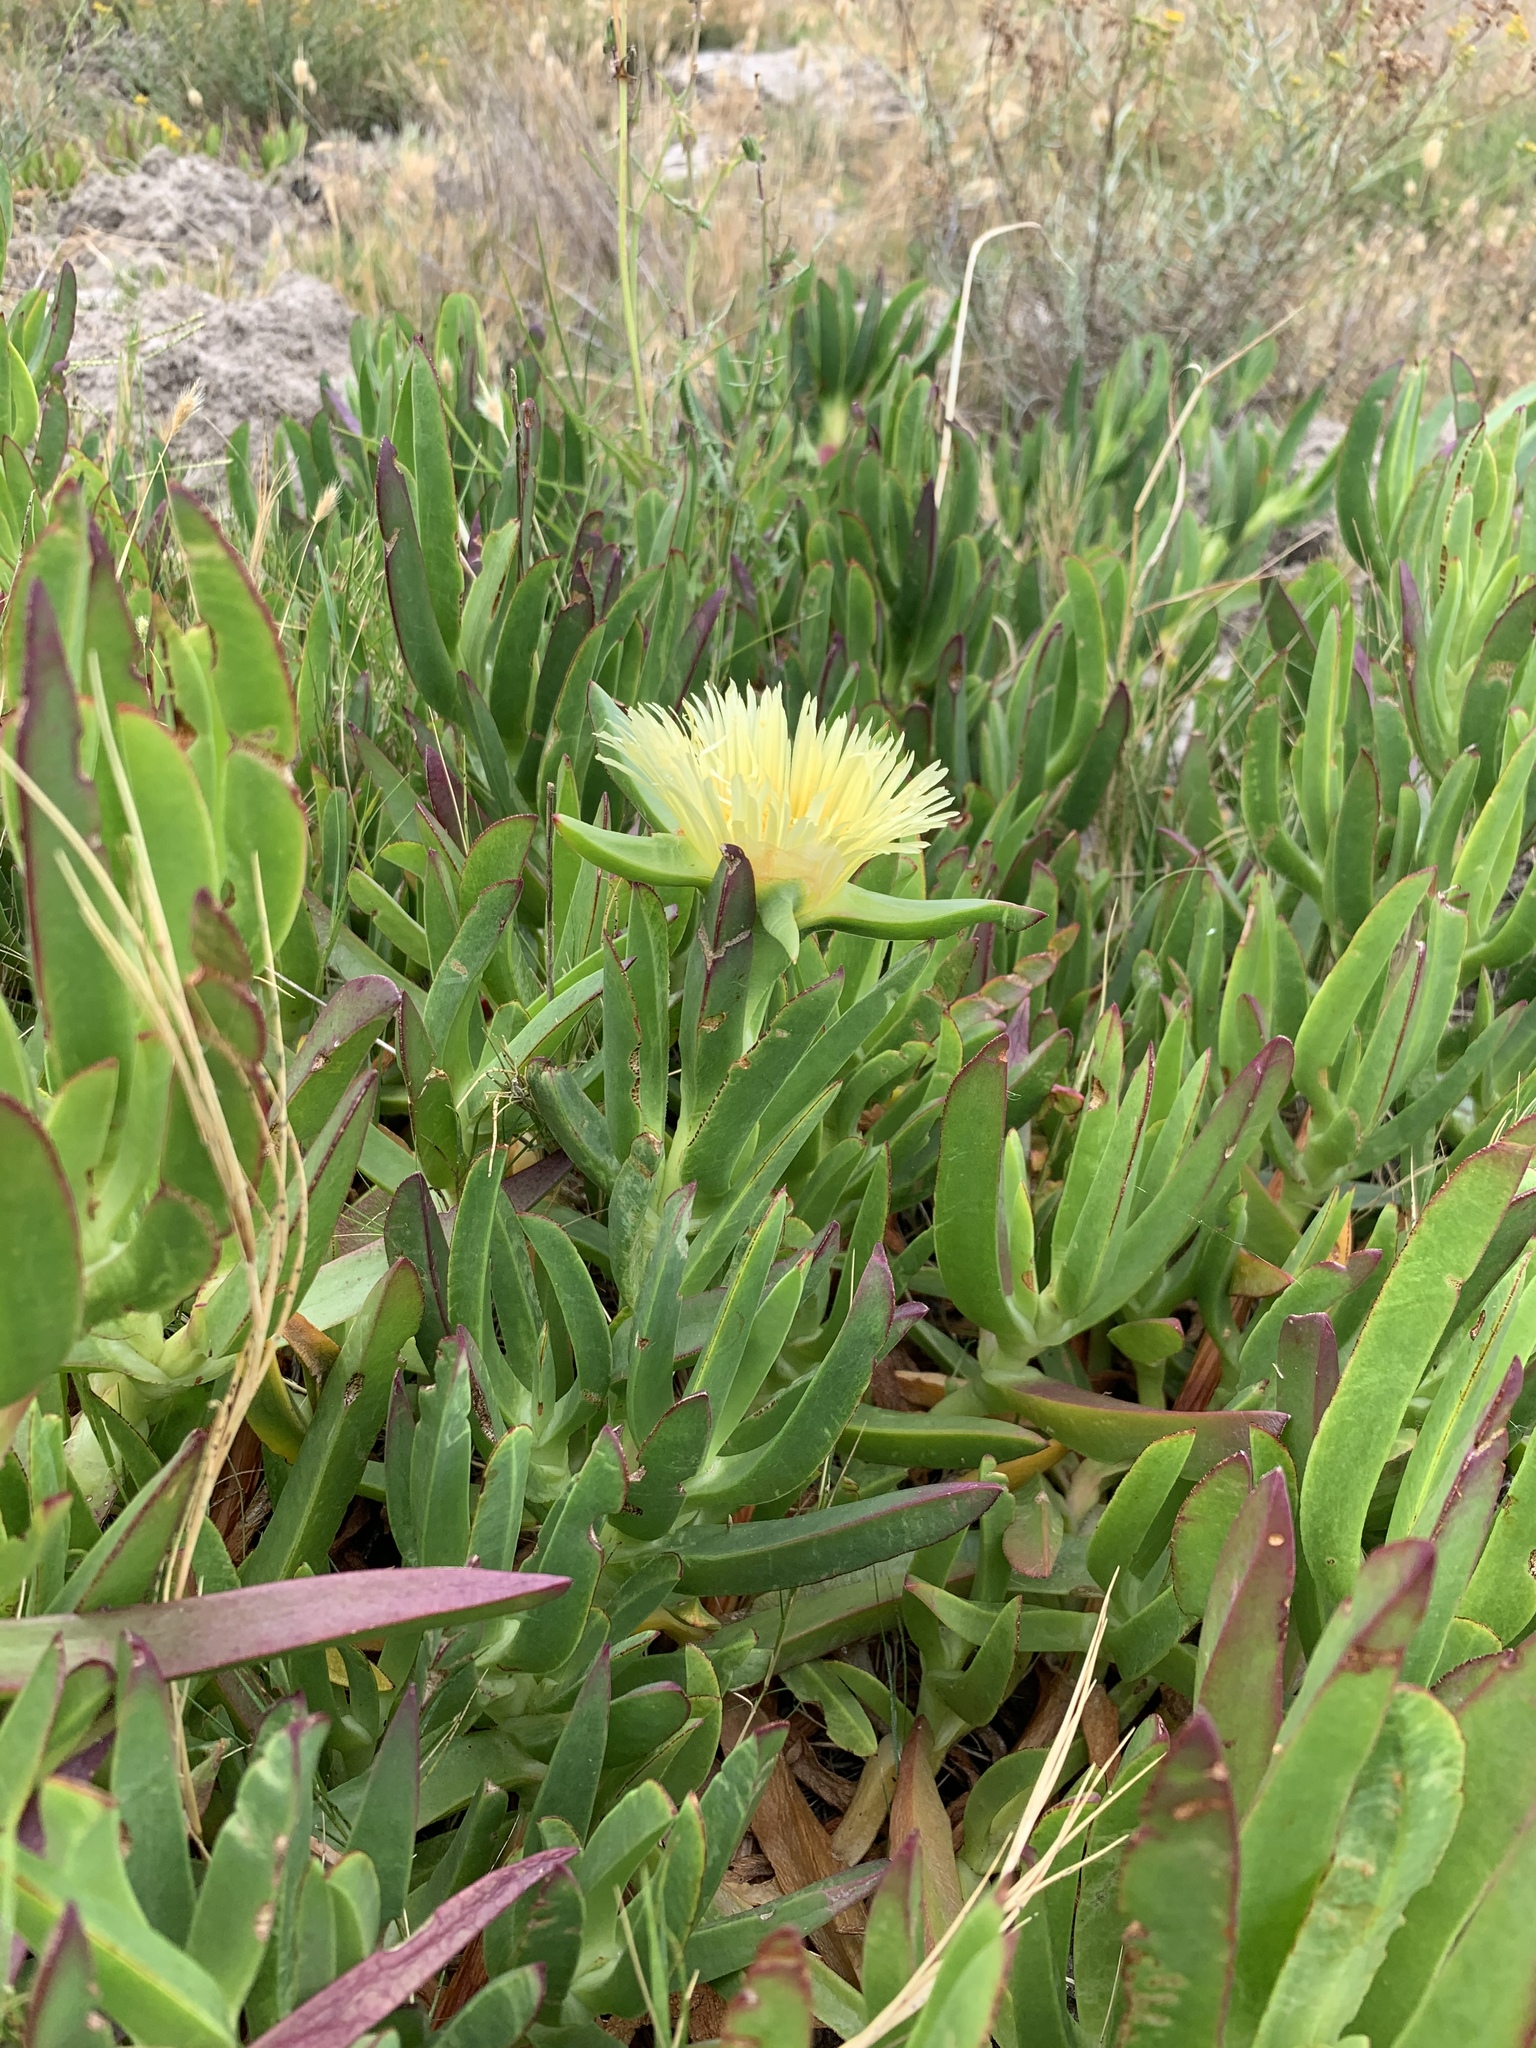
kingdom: Plantae
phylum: Tracheophyta
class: Magnoliopsida
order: Caryophyllales
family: Aizoaceae
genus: Carpobrotus
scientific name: Carpobrotus edulis
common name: Hottentot-fig
